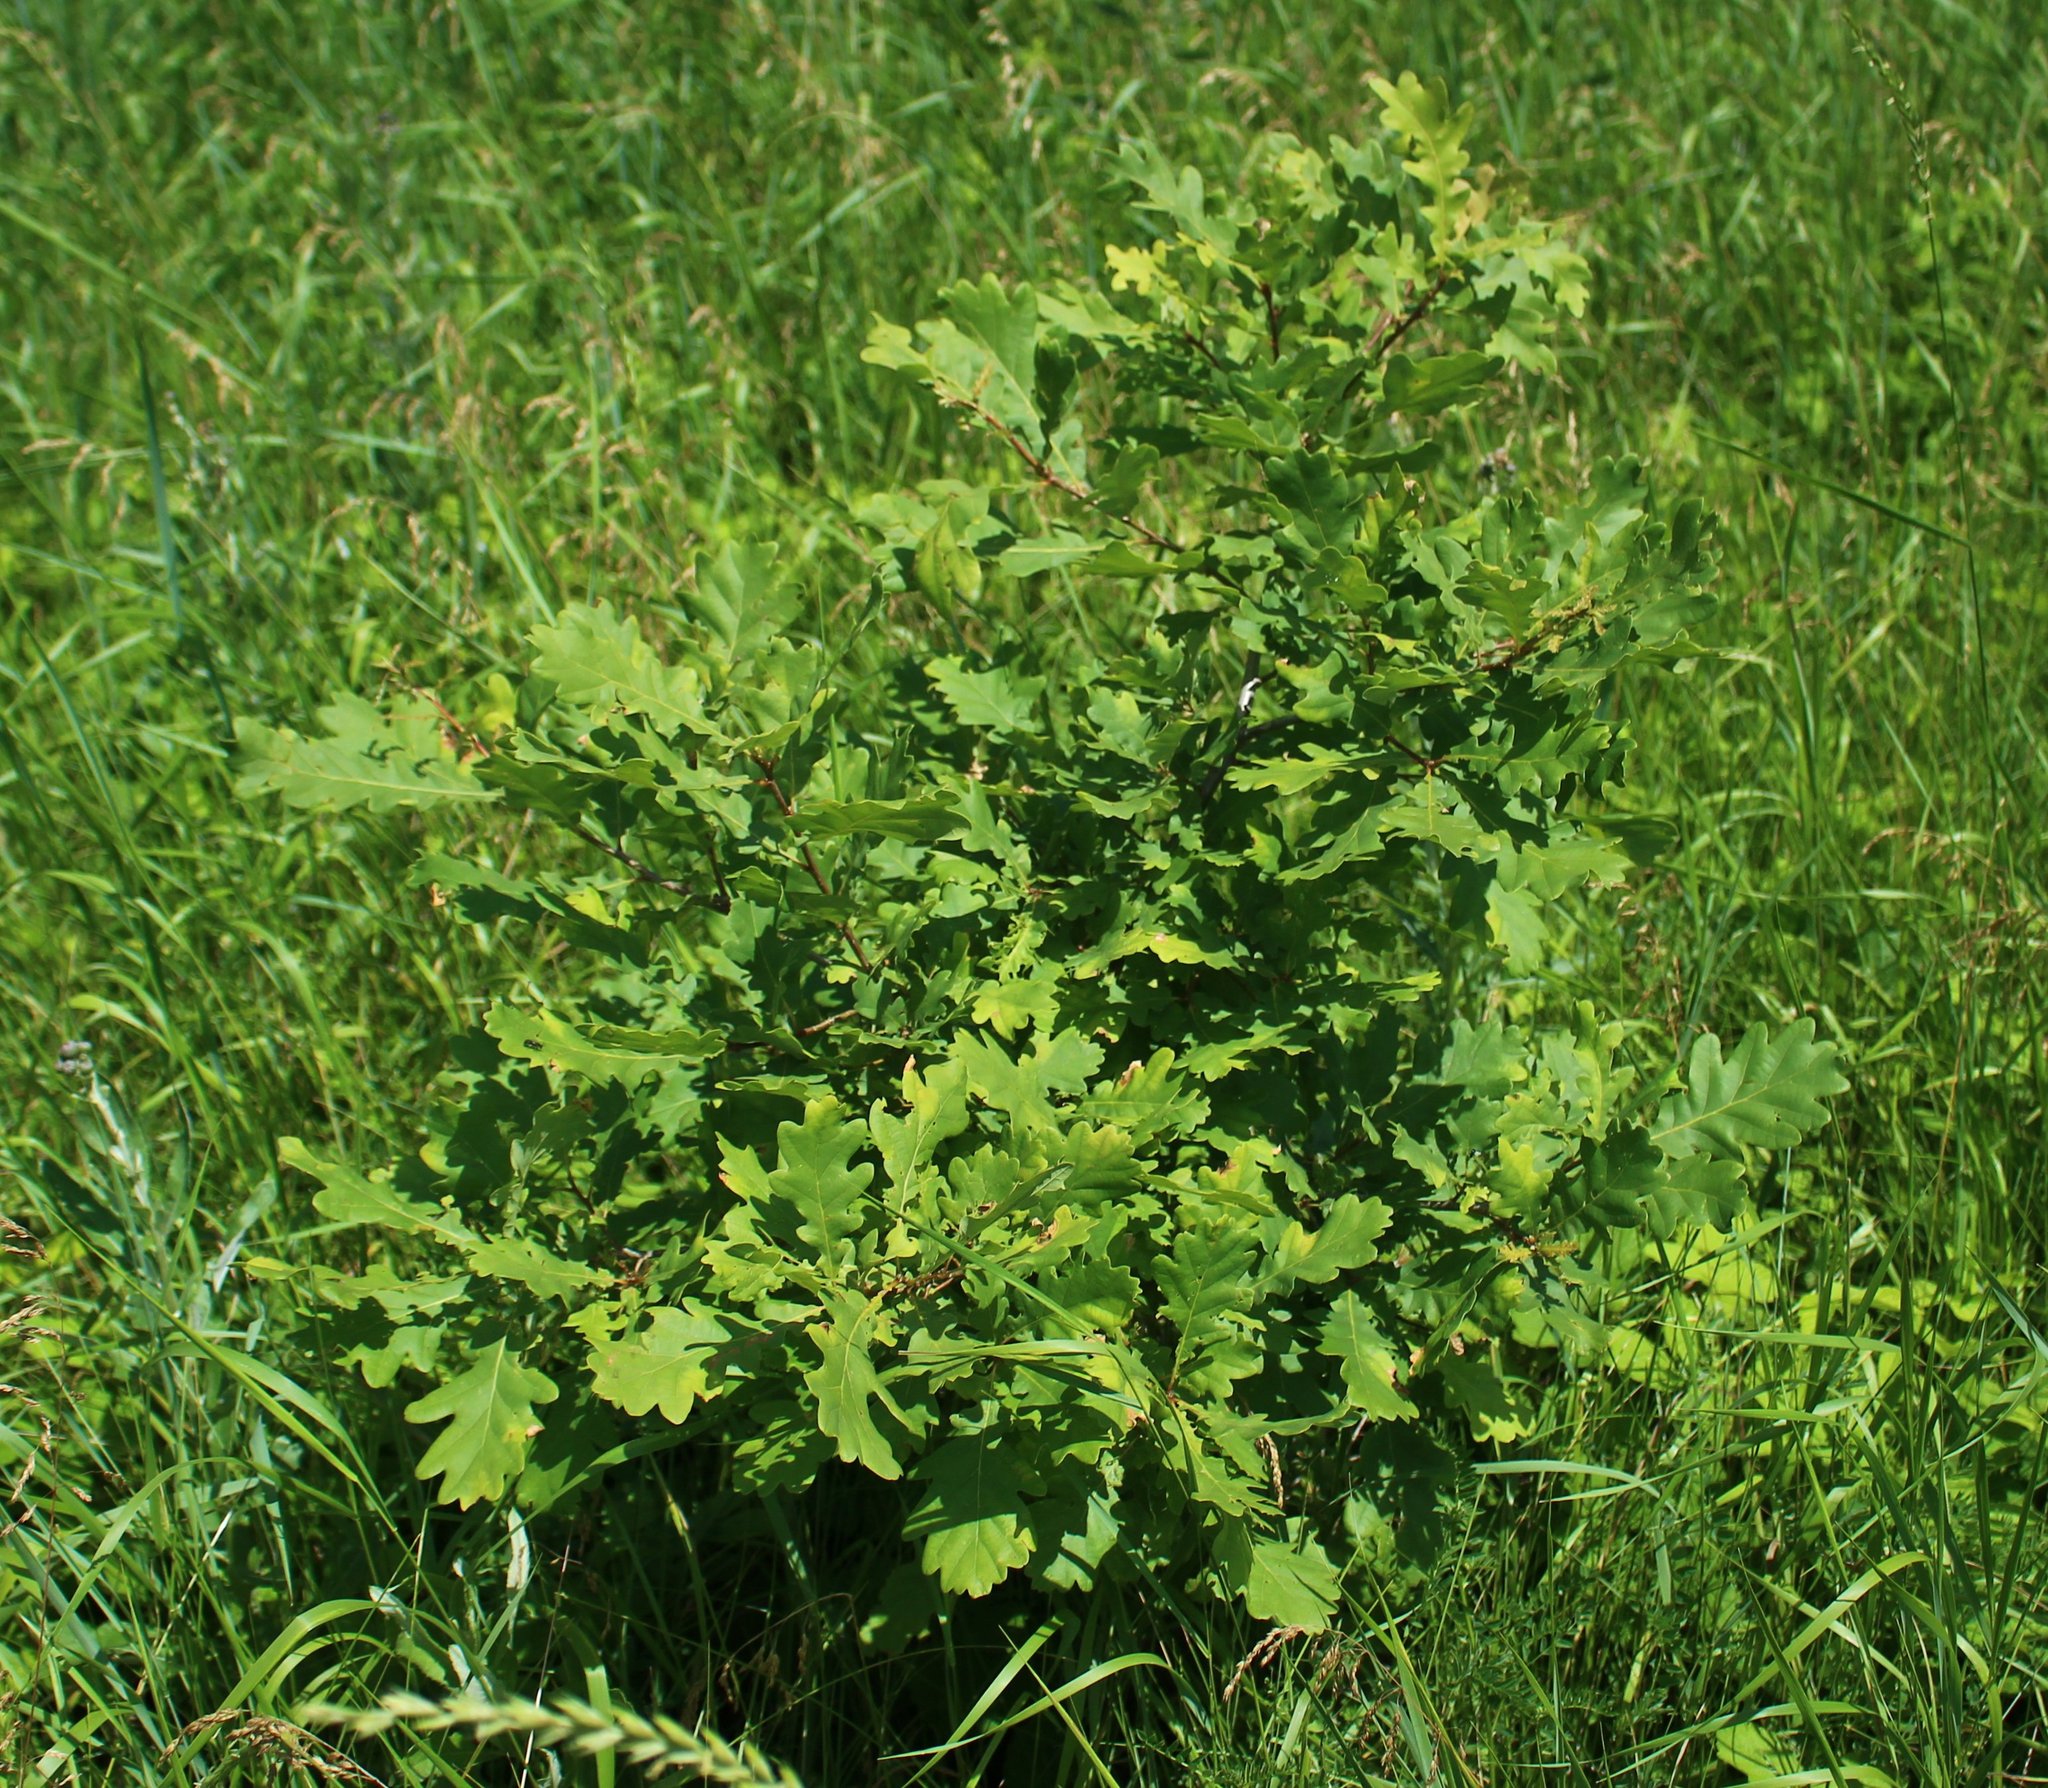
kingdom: Plantae
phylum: Tracheophyta
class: Magnoliopsida
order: Fagales
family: Fagaceae
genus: Quercus
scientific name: Quercus robur
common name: Pedunculate oak
